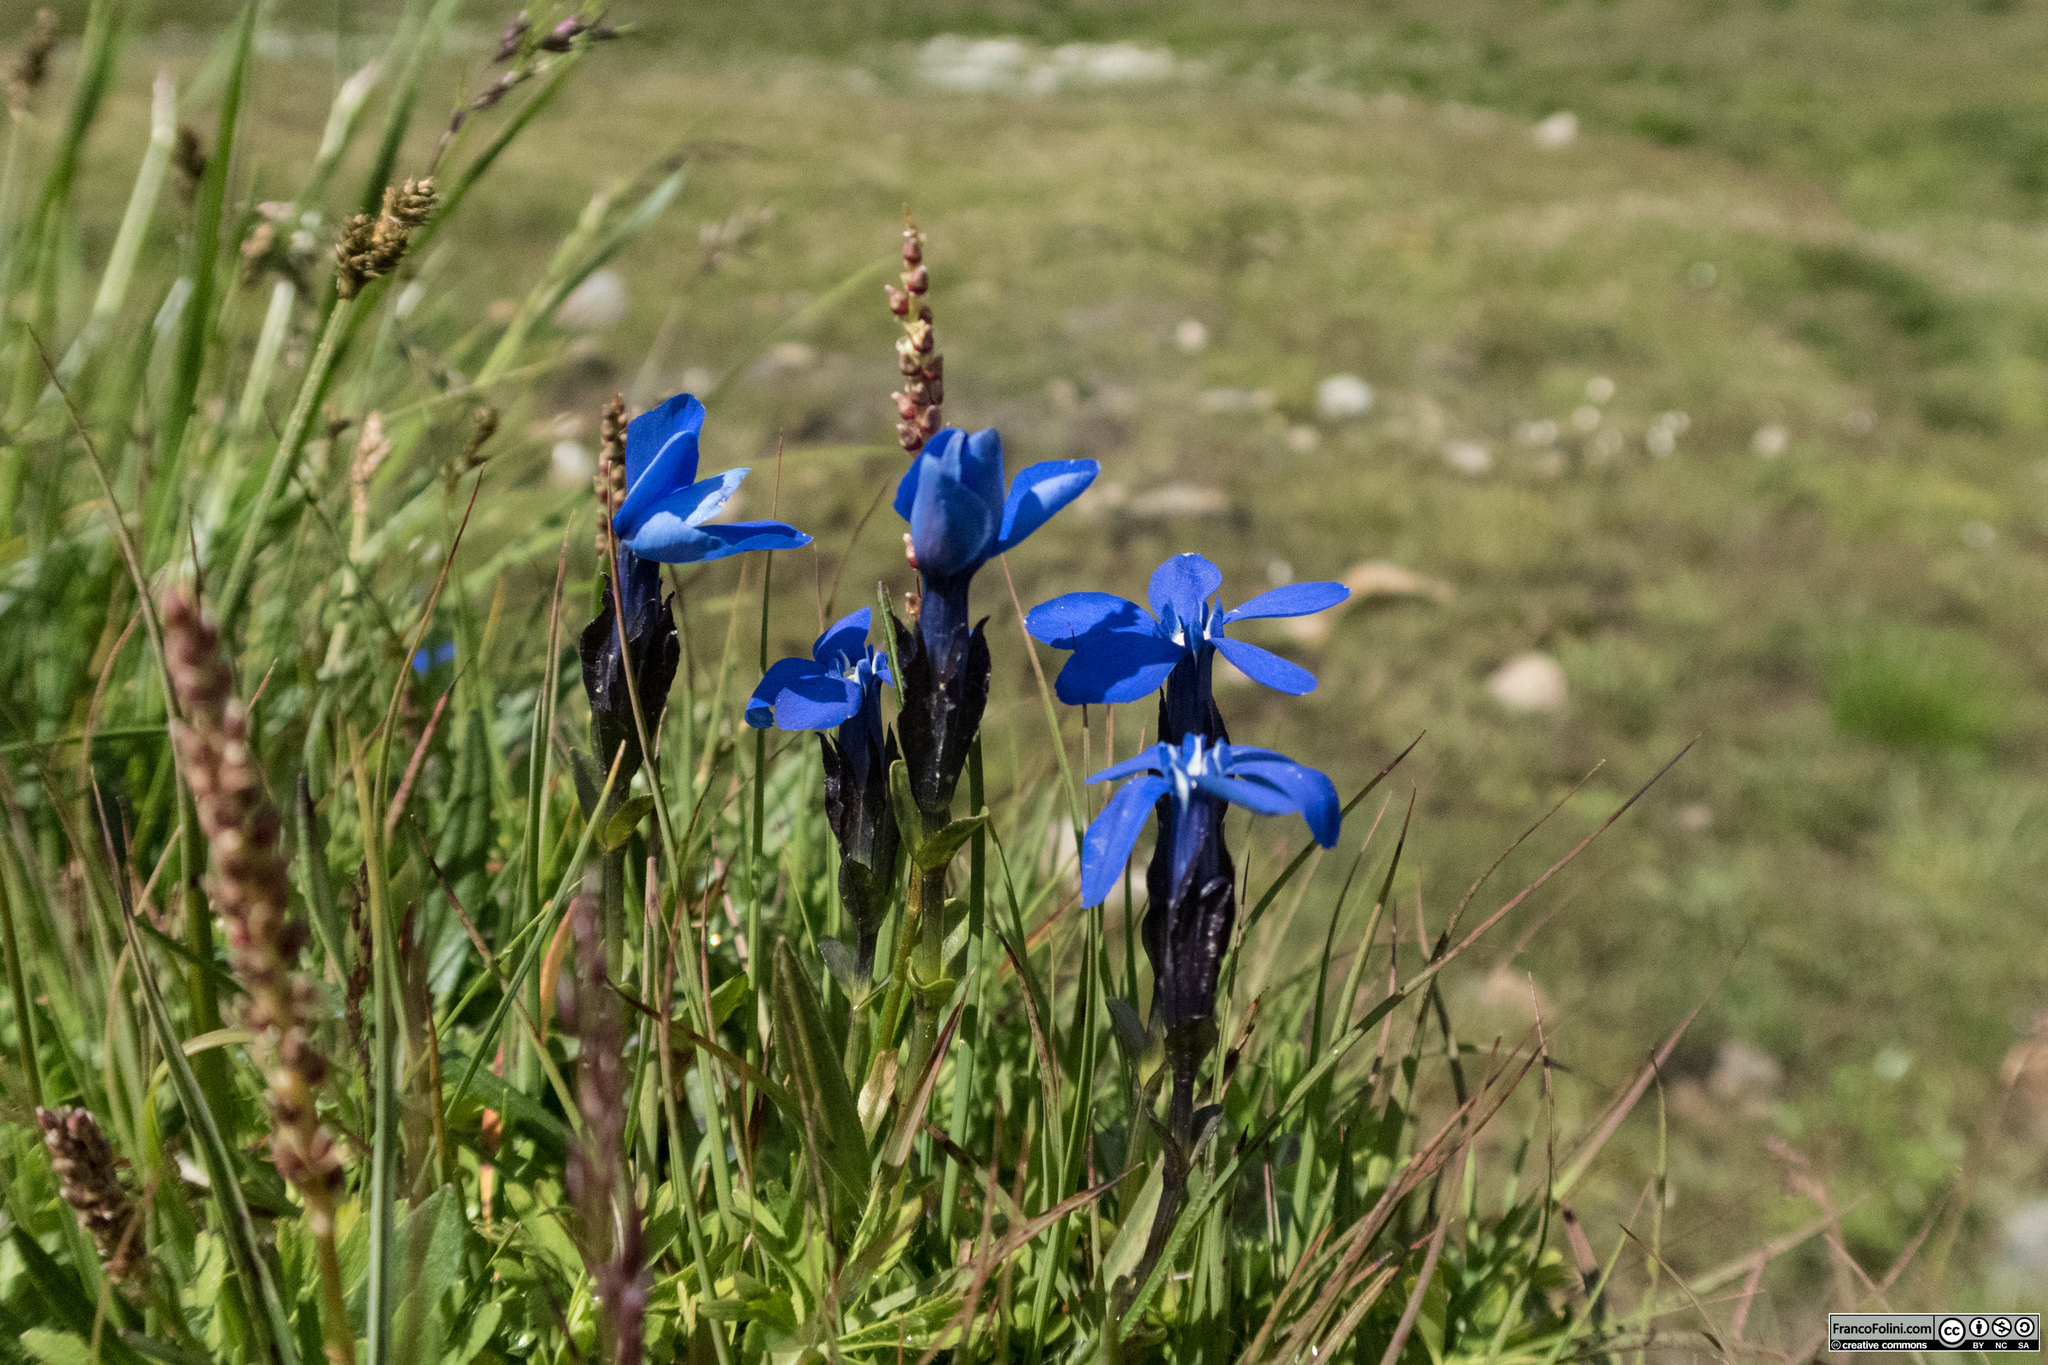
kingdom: Plantae
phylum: Tracheophyta
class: Magnoliopsida
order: Gentianales
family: Gentianaceae
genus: Gentiana
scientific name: Gentiana bavarica
